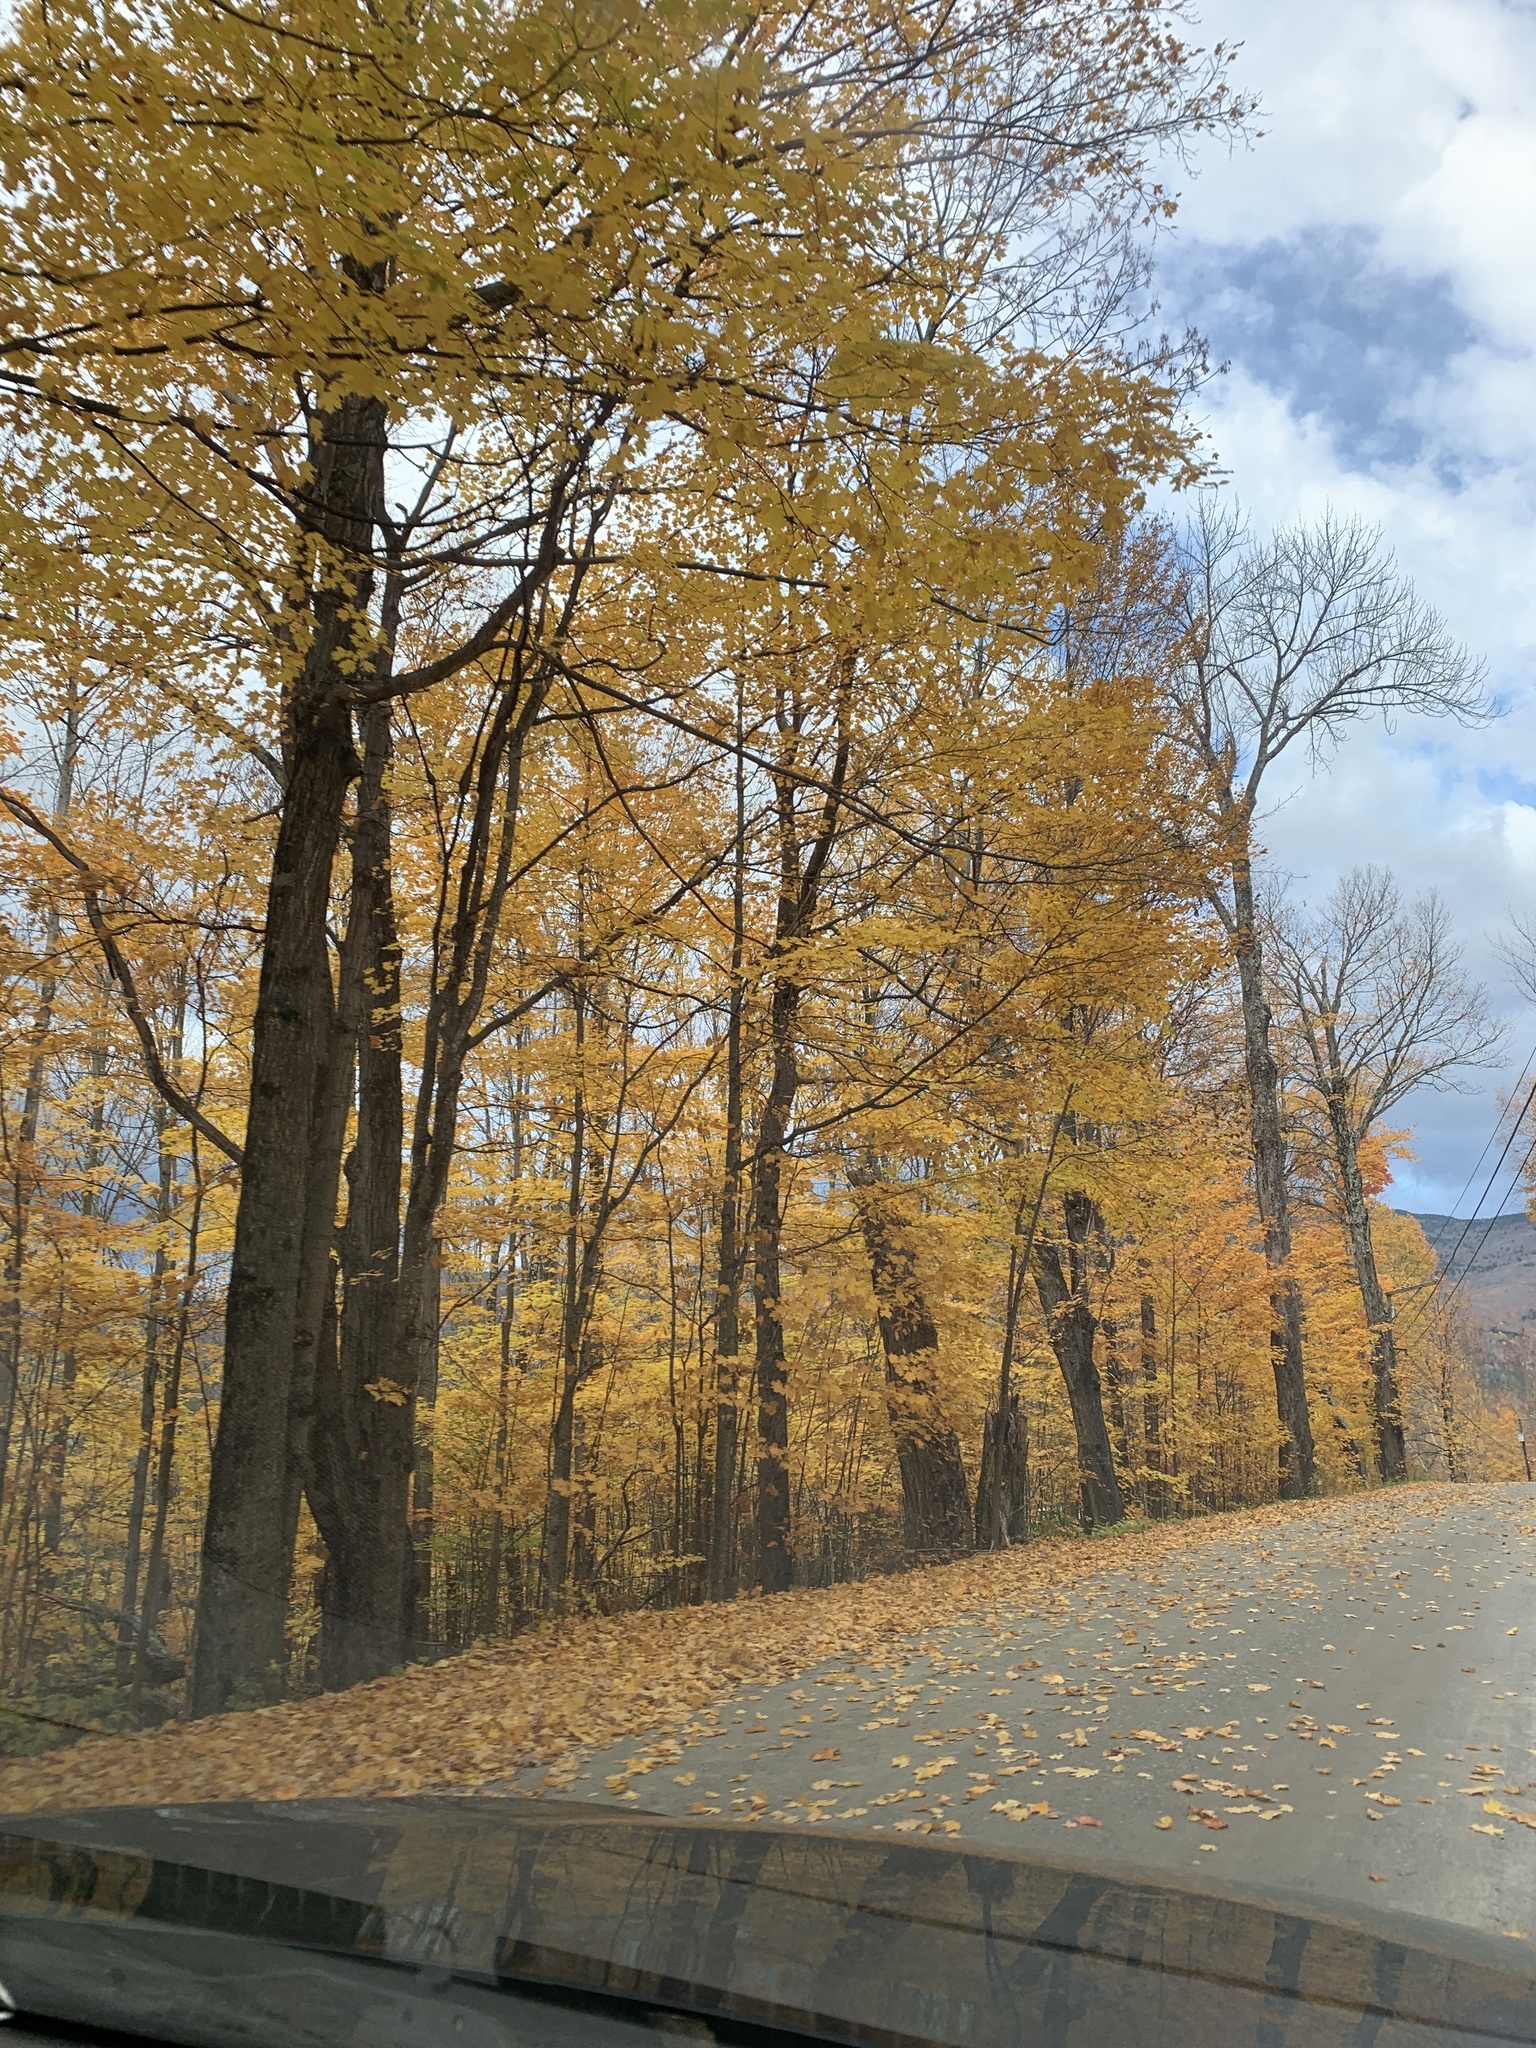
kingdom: Plantae
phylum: Tracheophyta
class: Magnoliopsida
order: Sapindales
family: Sapindaceae
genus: Acer
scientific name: Acer saccharum
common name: Sugar maple
